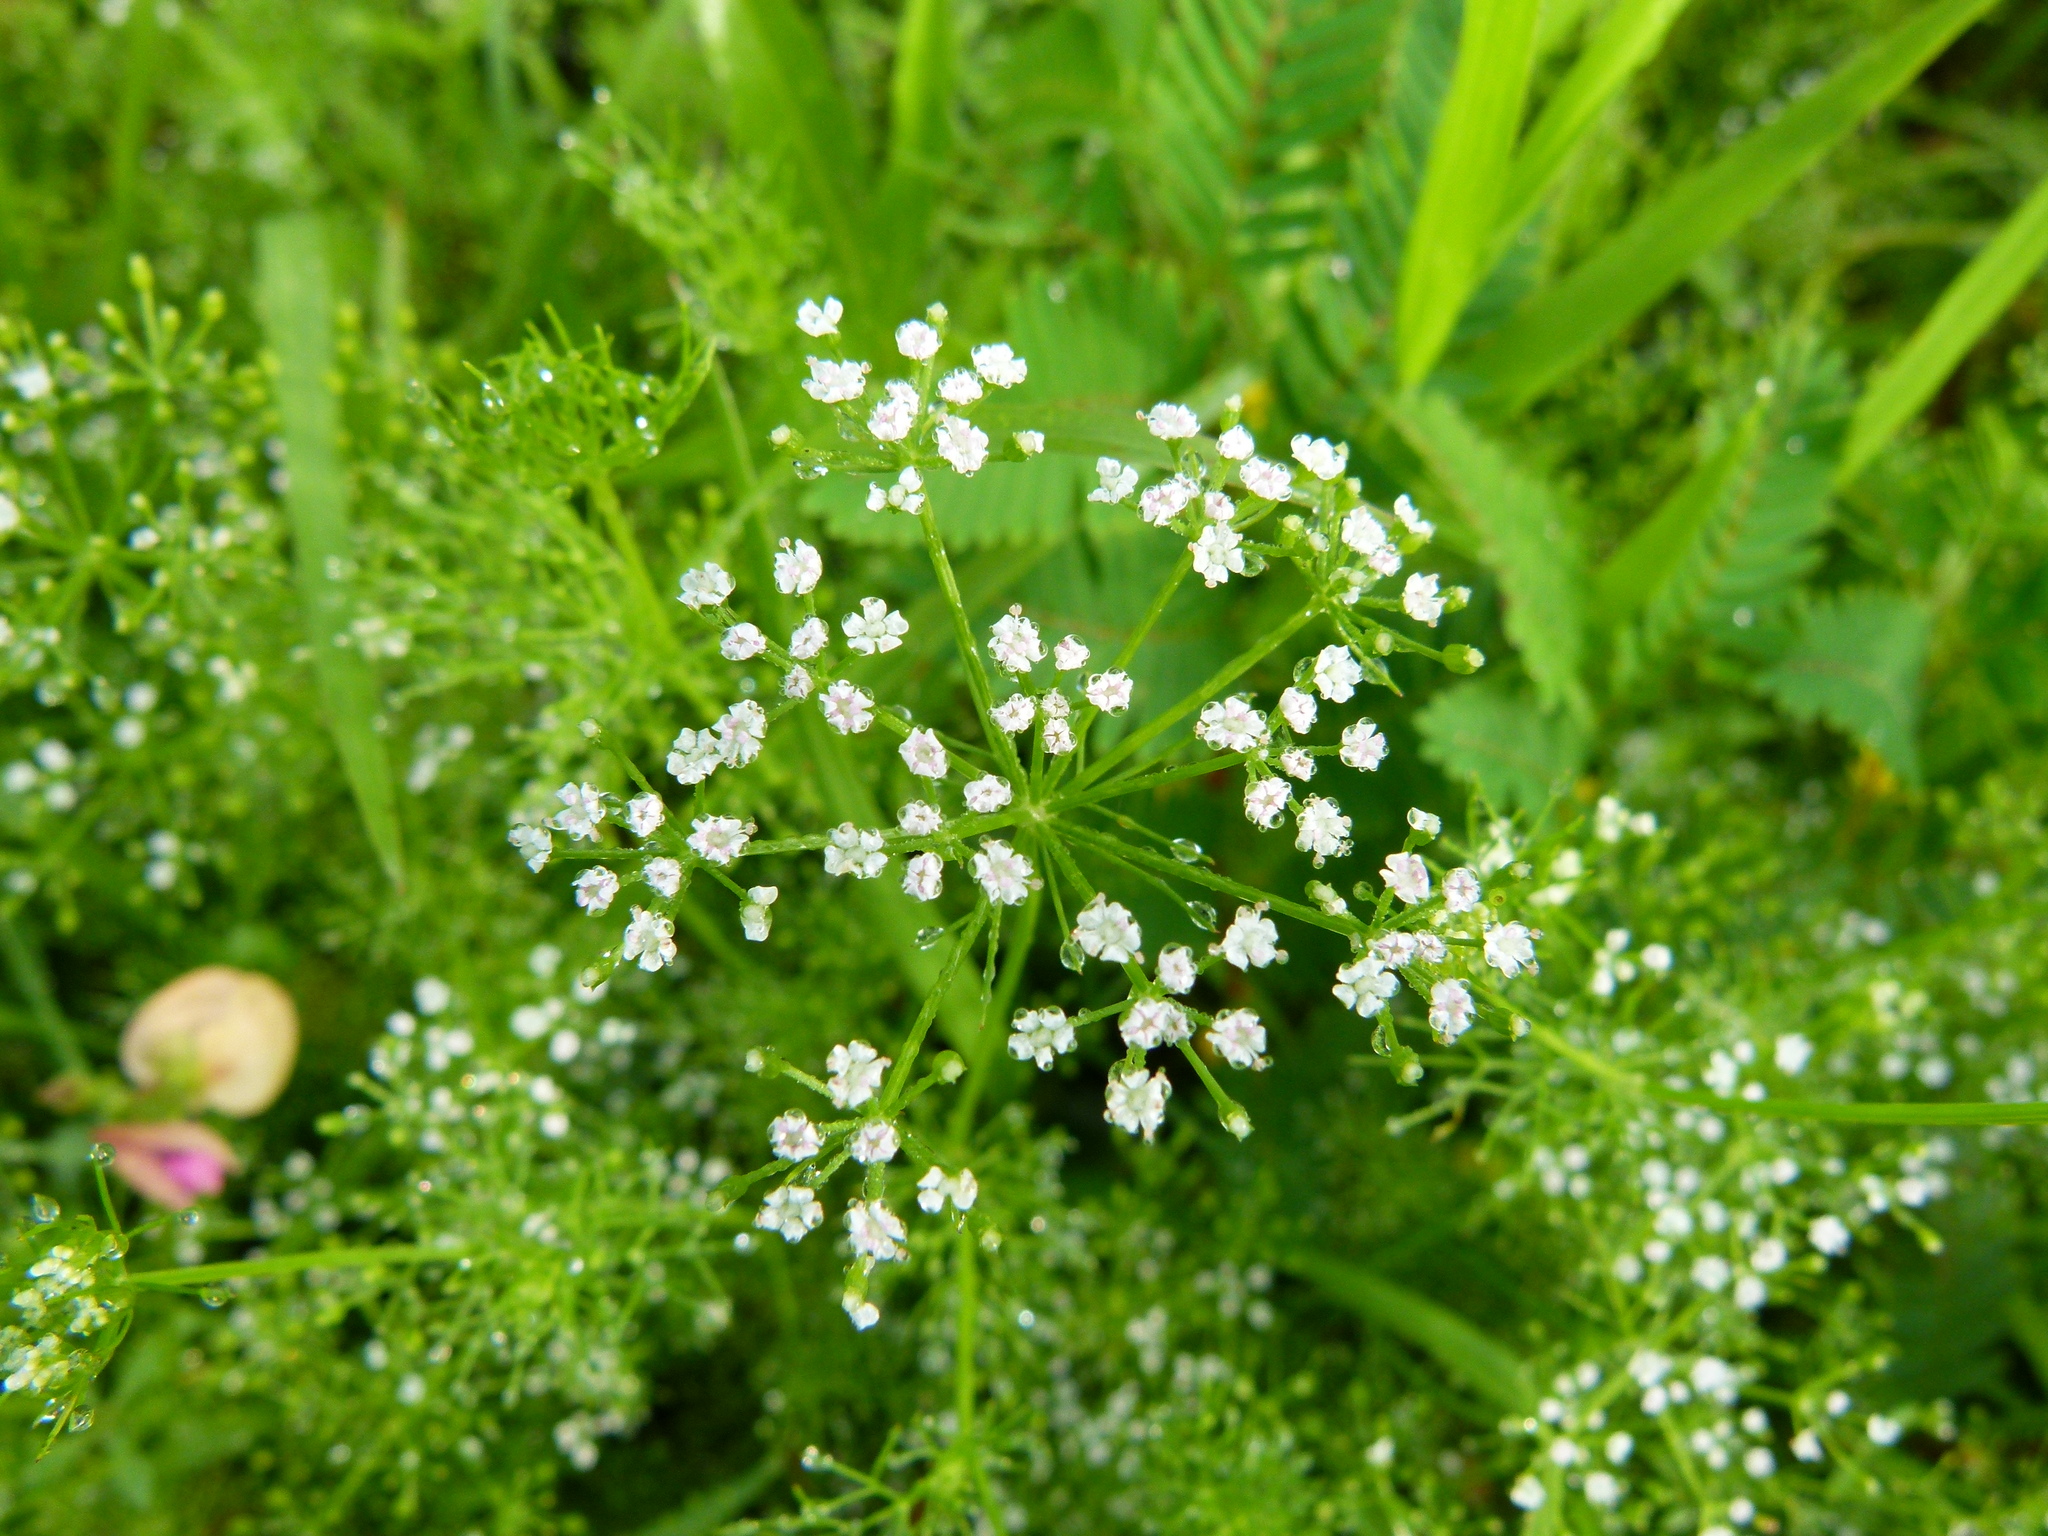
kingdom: Plantae
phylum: Tracheophyta
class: Magnoliopsida
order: Apiales
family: Apiaceae
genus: Ptilimnium
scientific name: Ptilimnium capillaceum
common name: Herbwilliam
